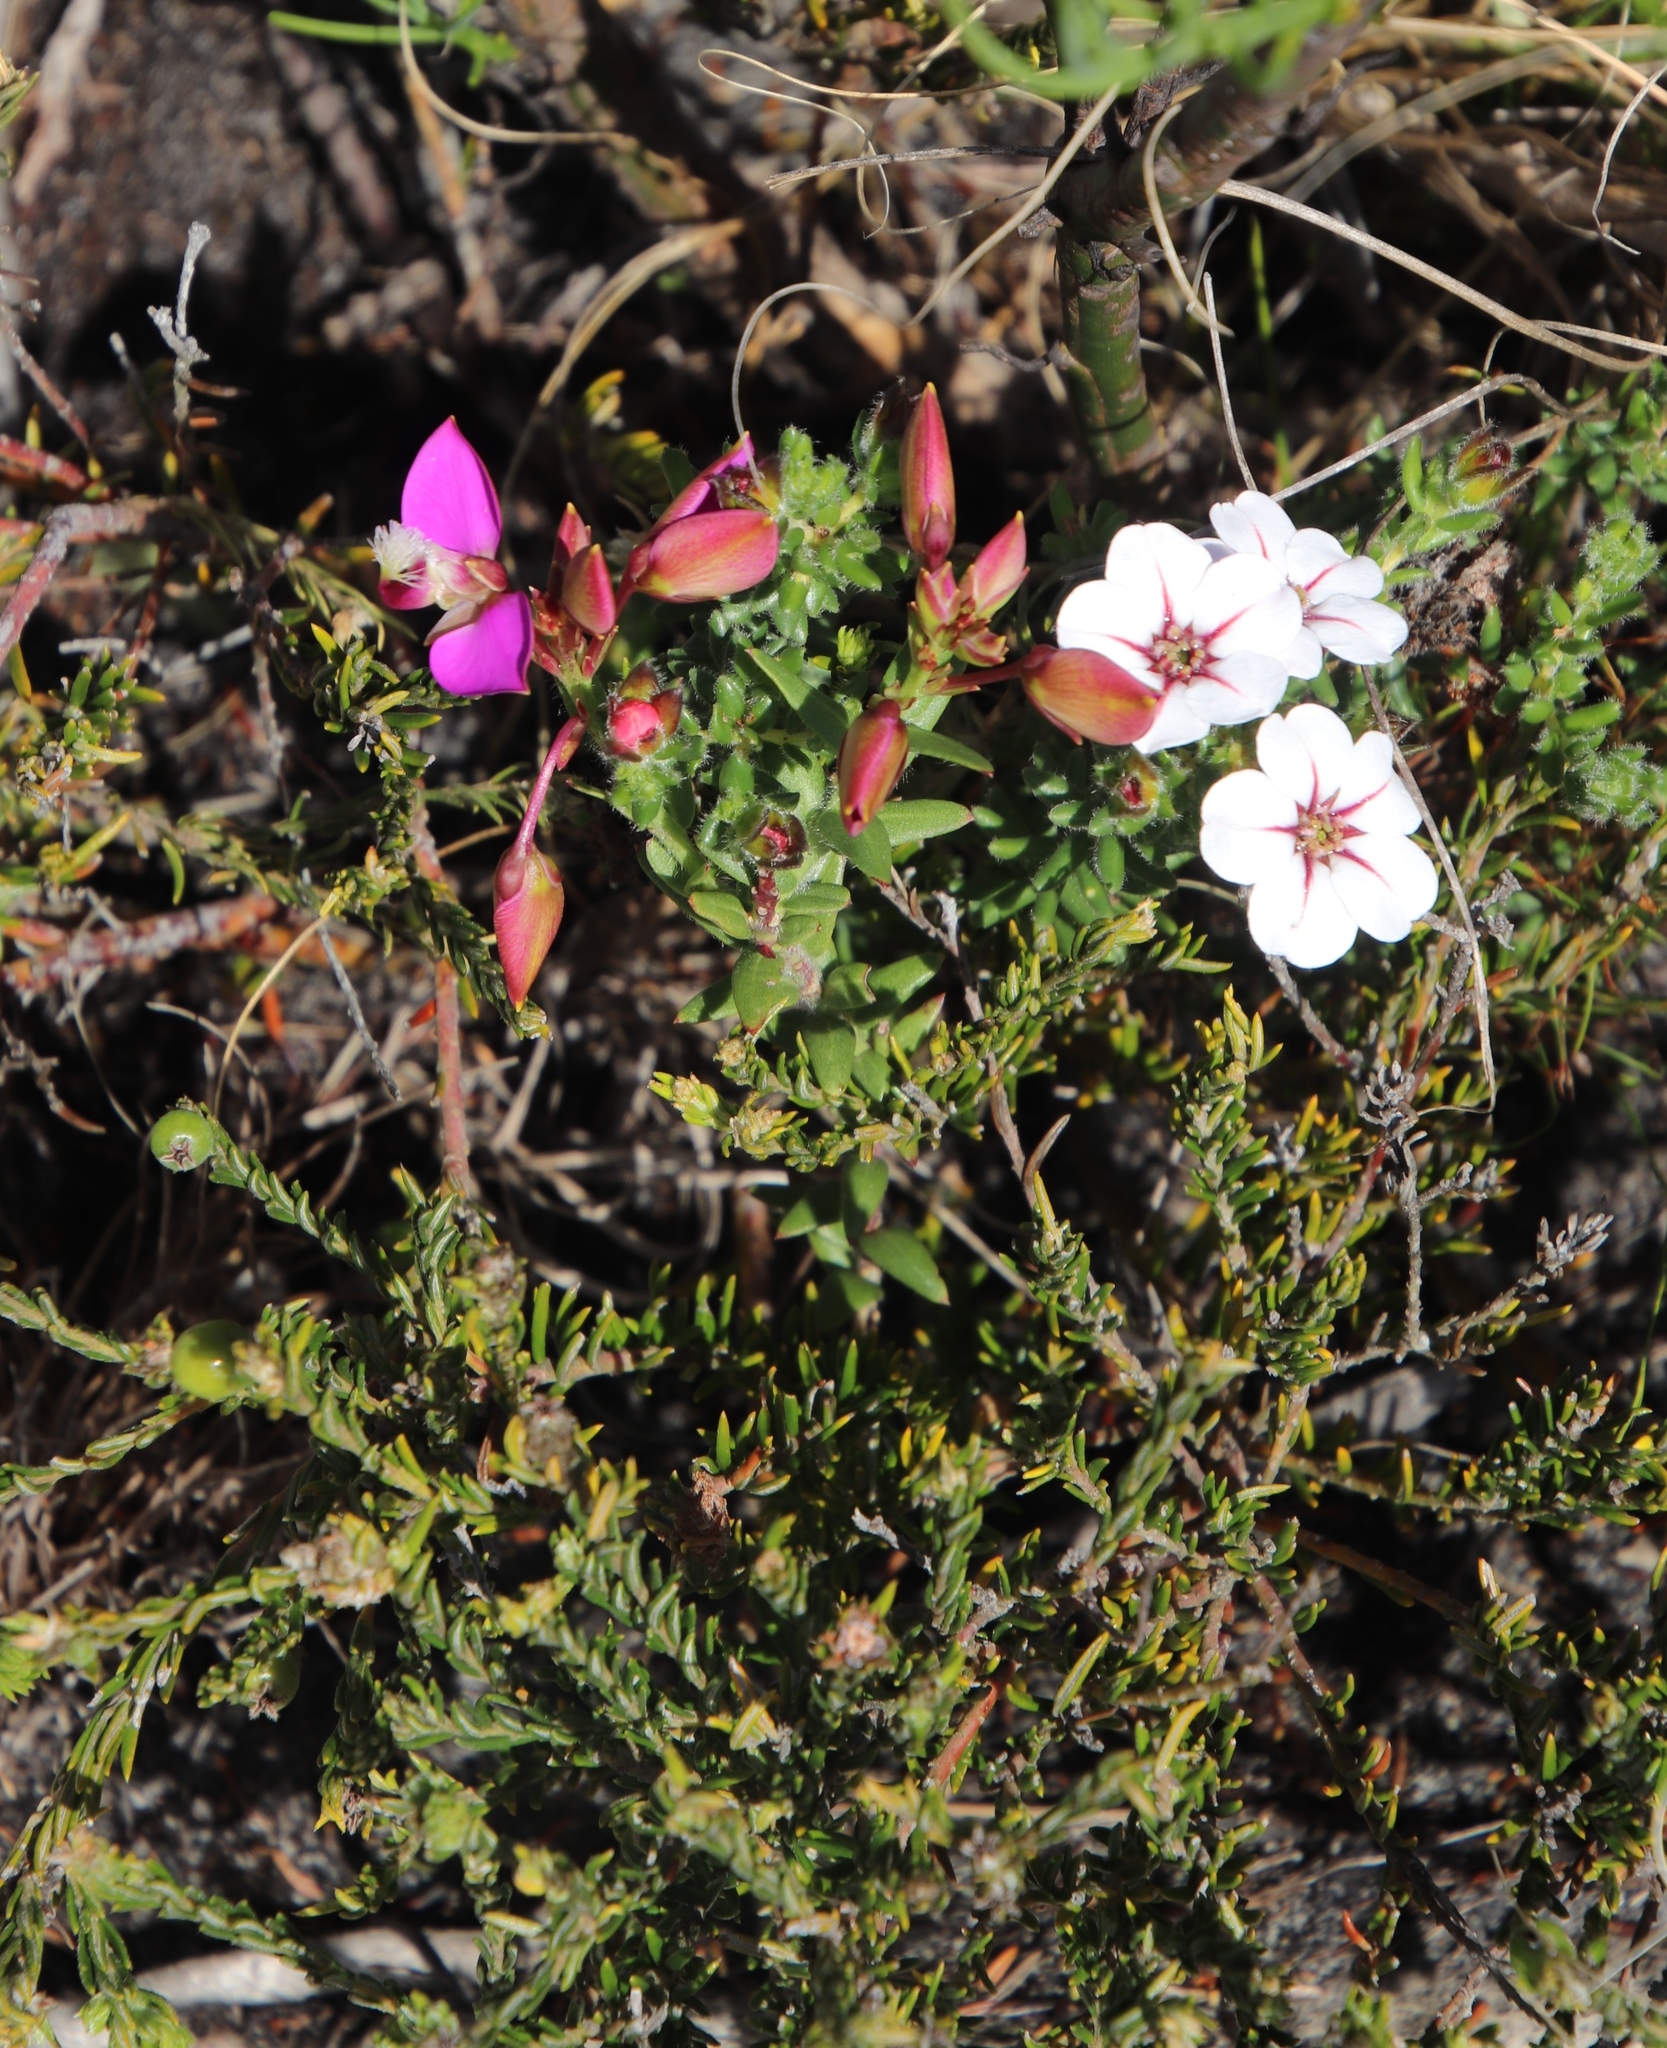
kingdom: Plantae
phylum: Tracheophyta
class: Magnoliopsida
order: Fabales
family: Polygalaceae
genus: Polygala
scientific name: Polygala bracteolata
